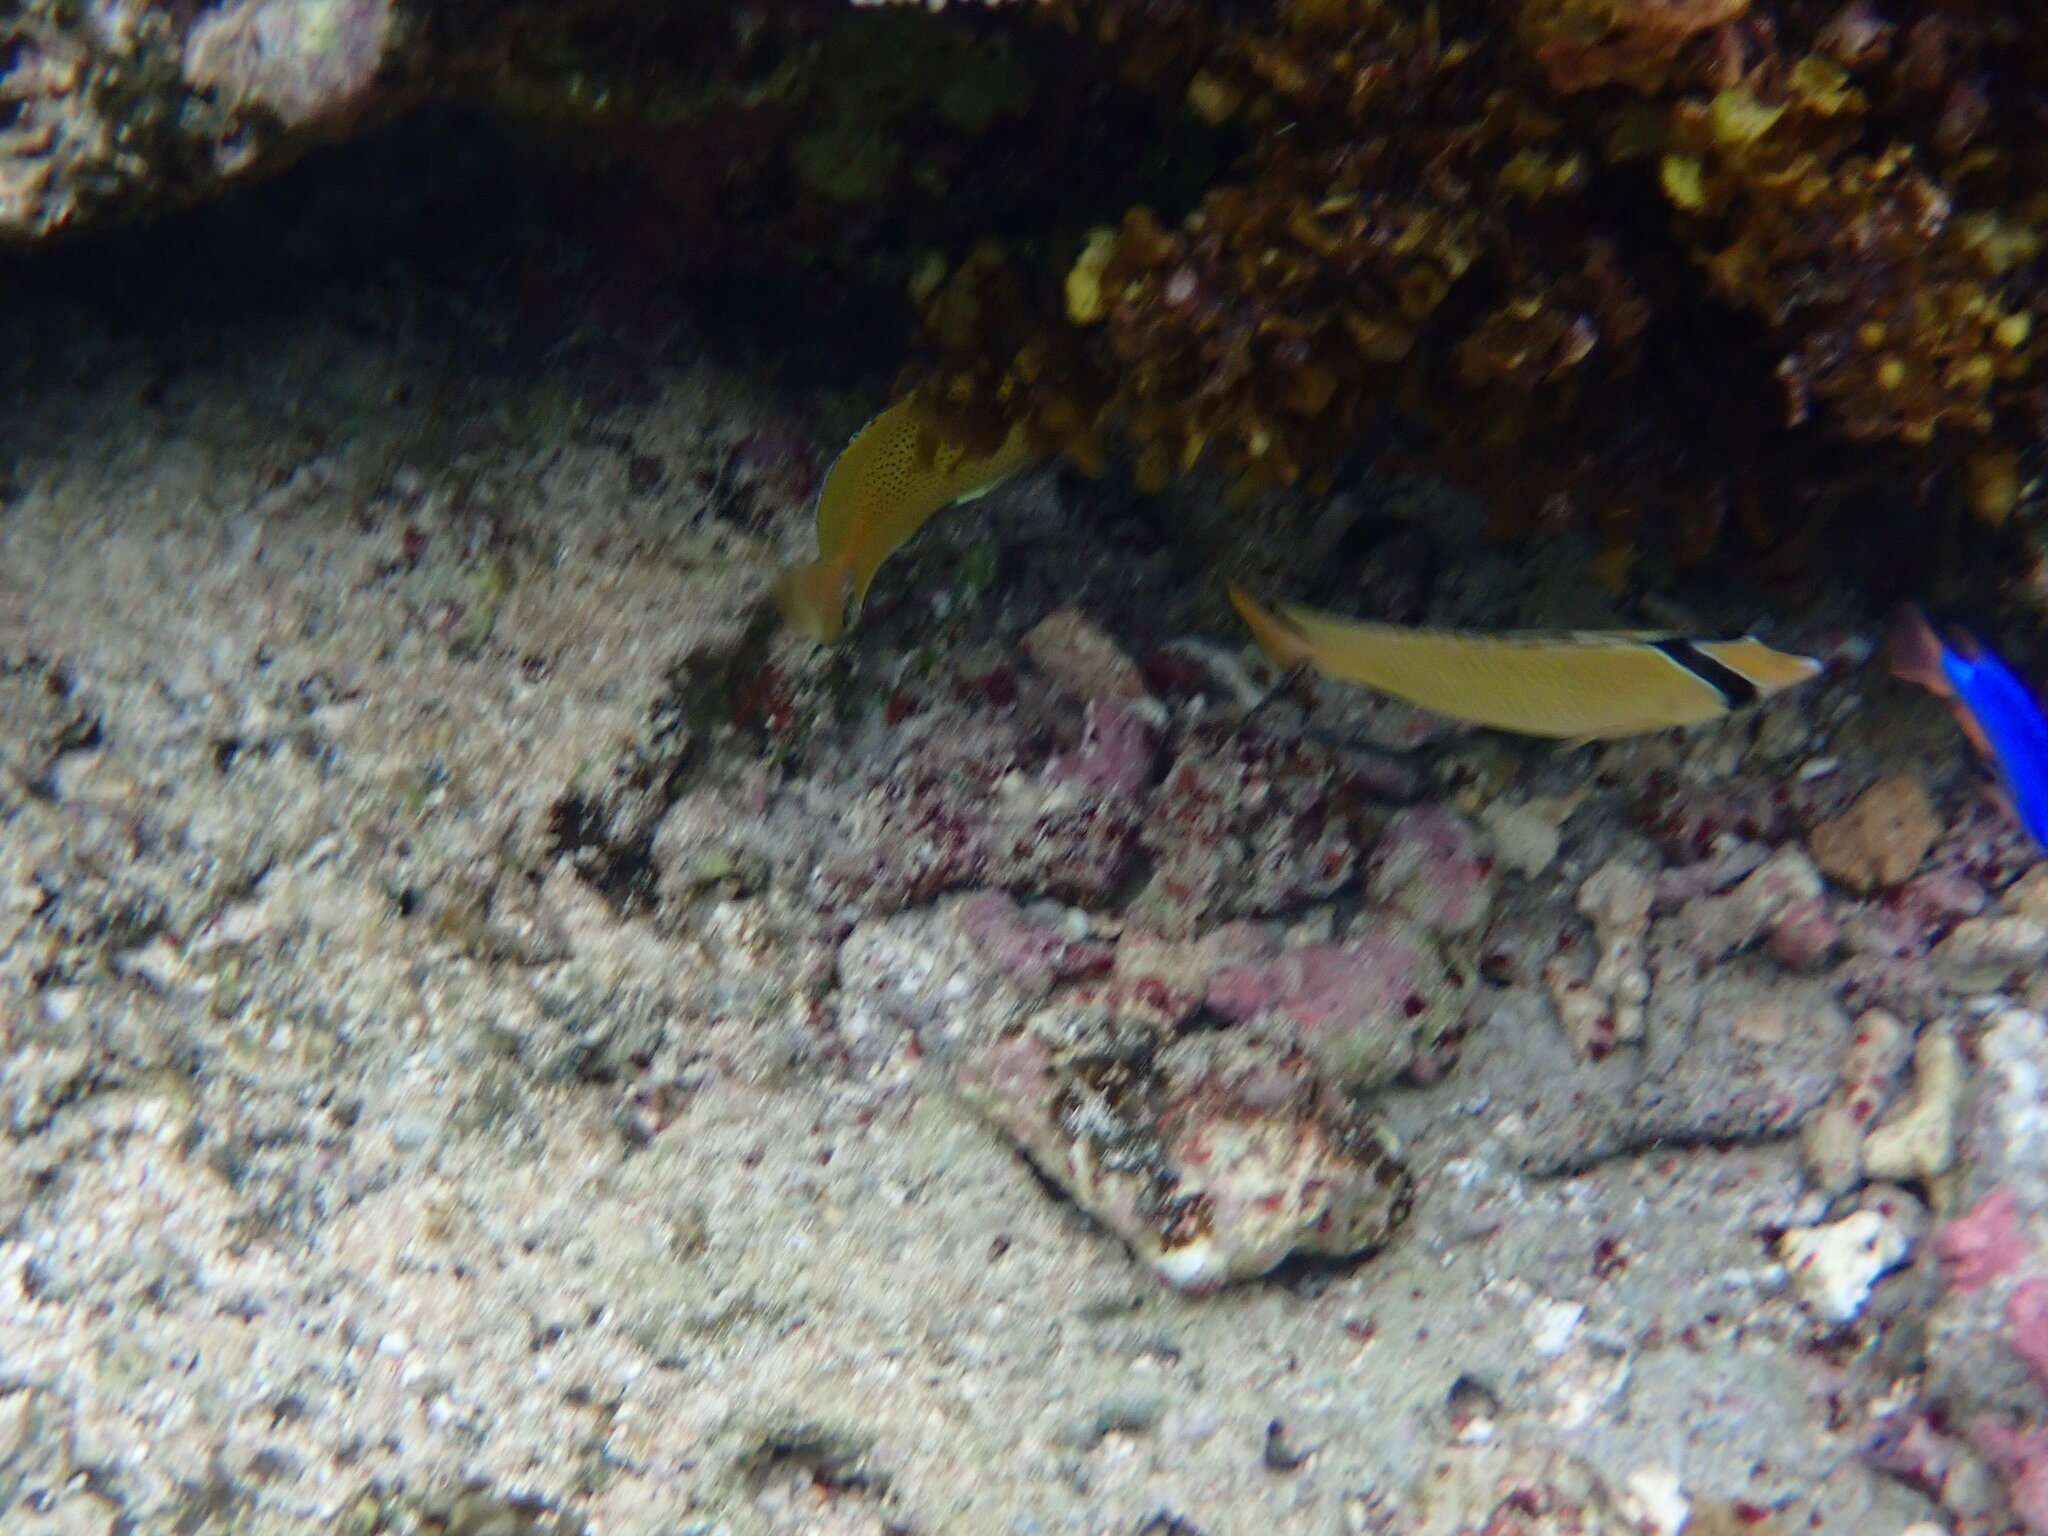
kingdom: Animalia
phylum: Chordata
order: Perciformes
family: Chaetodontidae
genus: Chaetodon
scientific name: Chaetodon citrinellus
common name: Speckled butterflyfish
